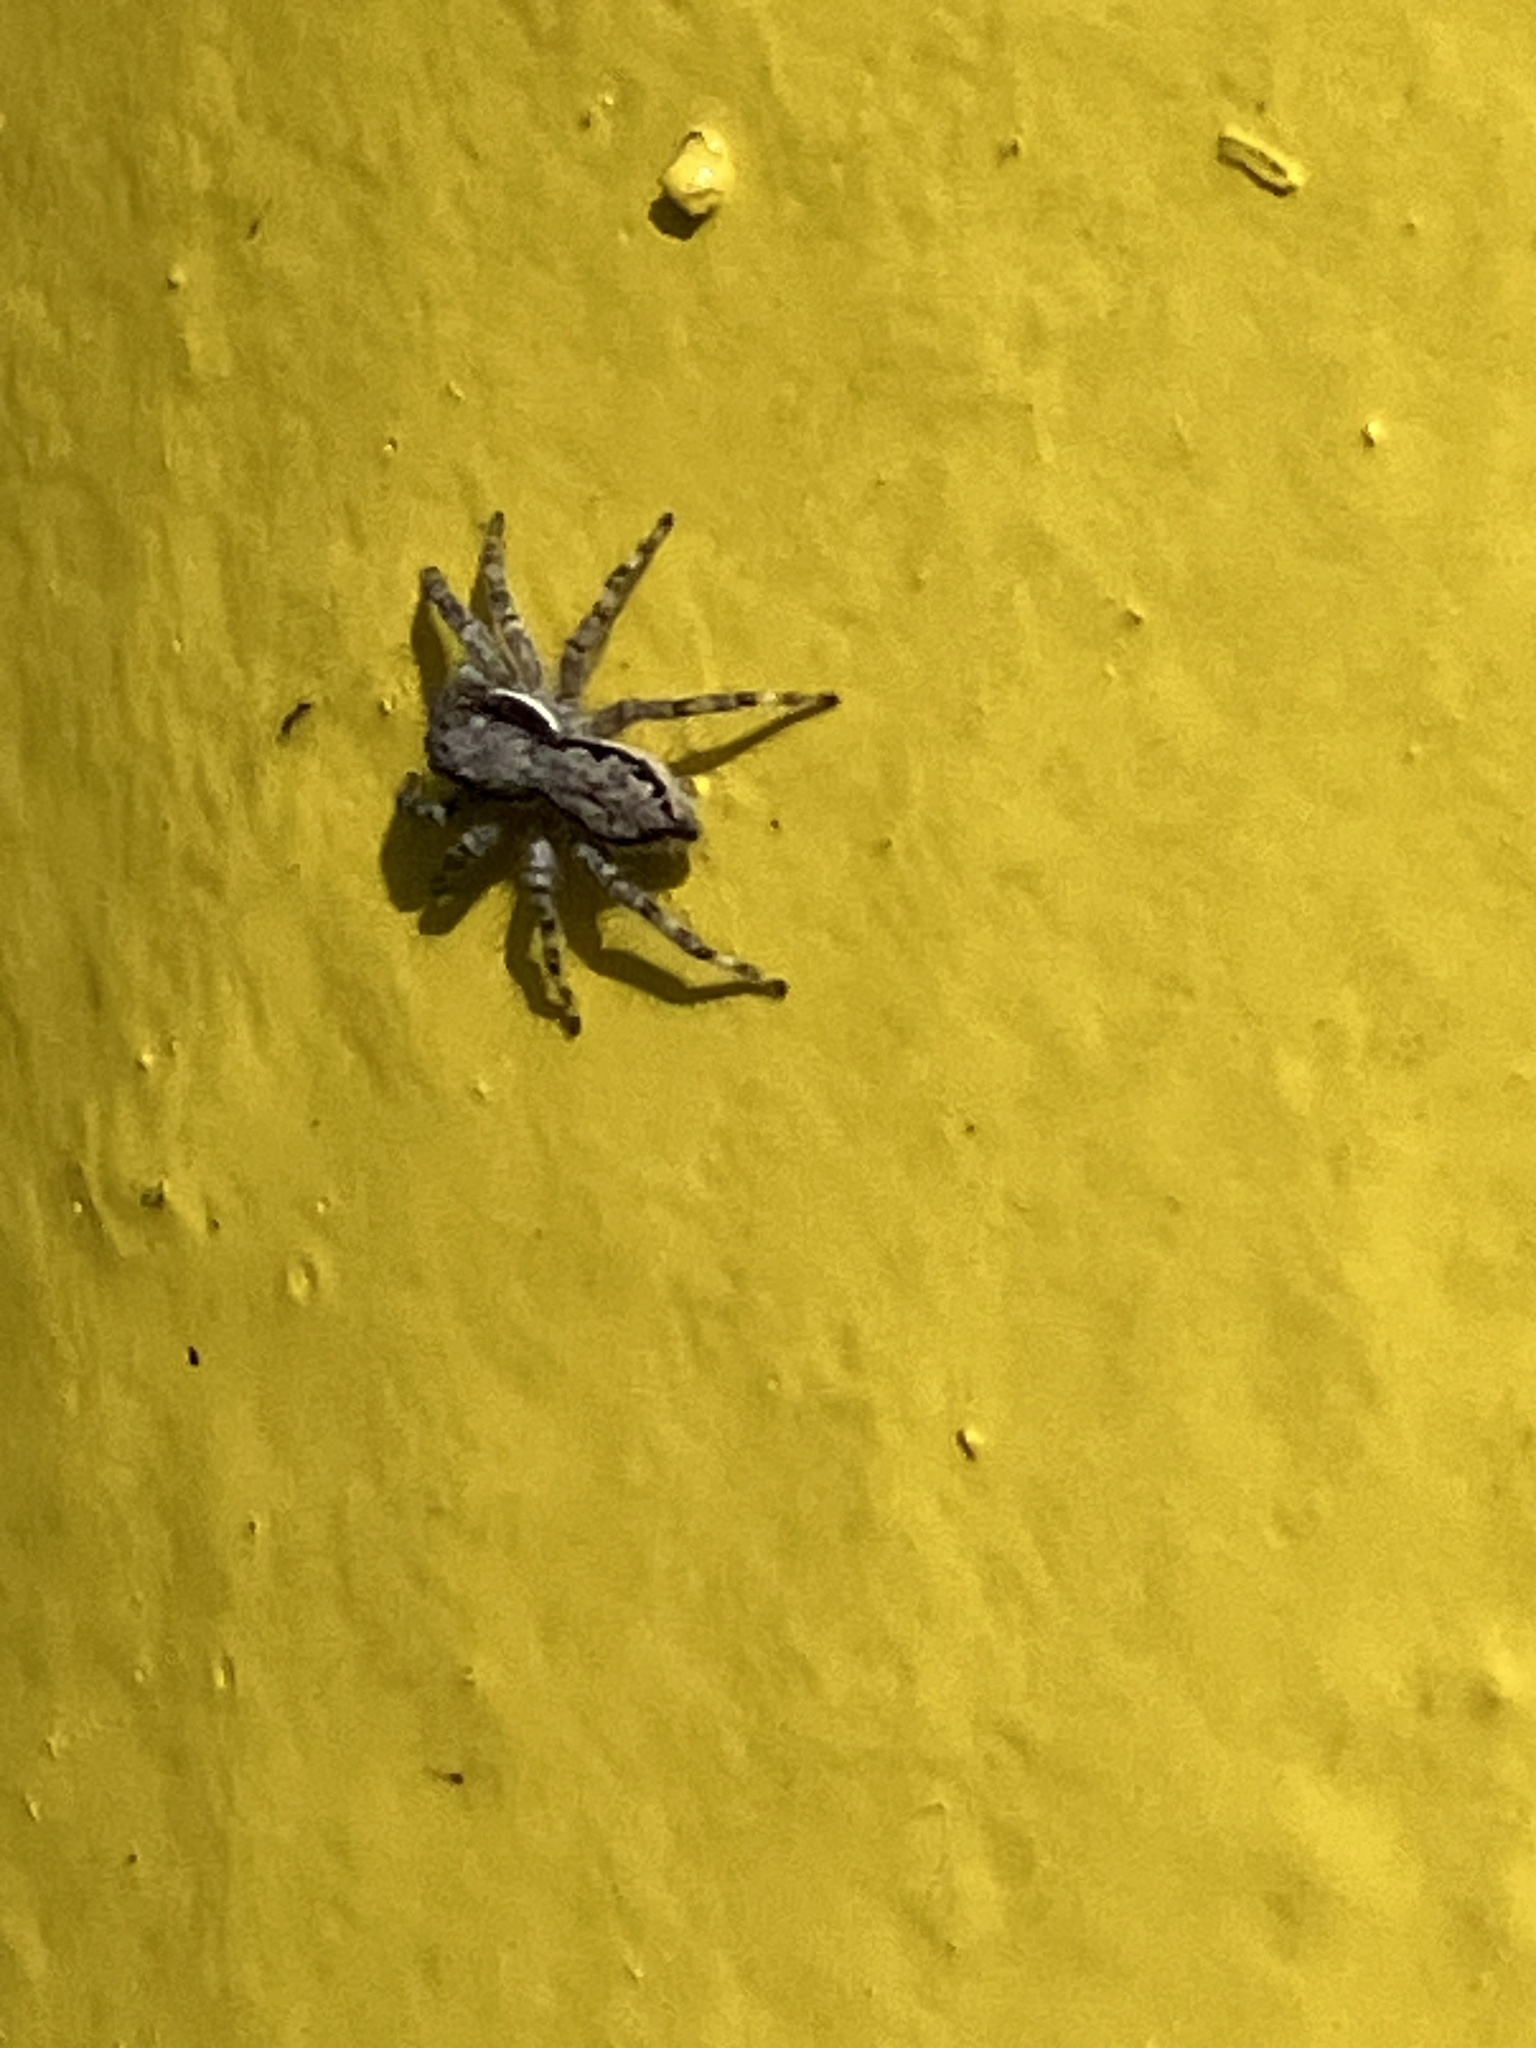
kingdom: Animalia
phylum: Arthropoda
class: Arachnida
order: Araneae
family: Salticidae
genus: Menemerus
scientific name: Menemerus bivittatus
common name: Gray wall jumper
